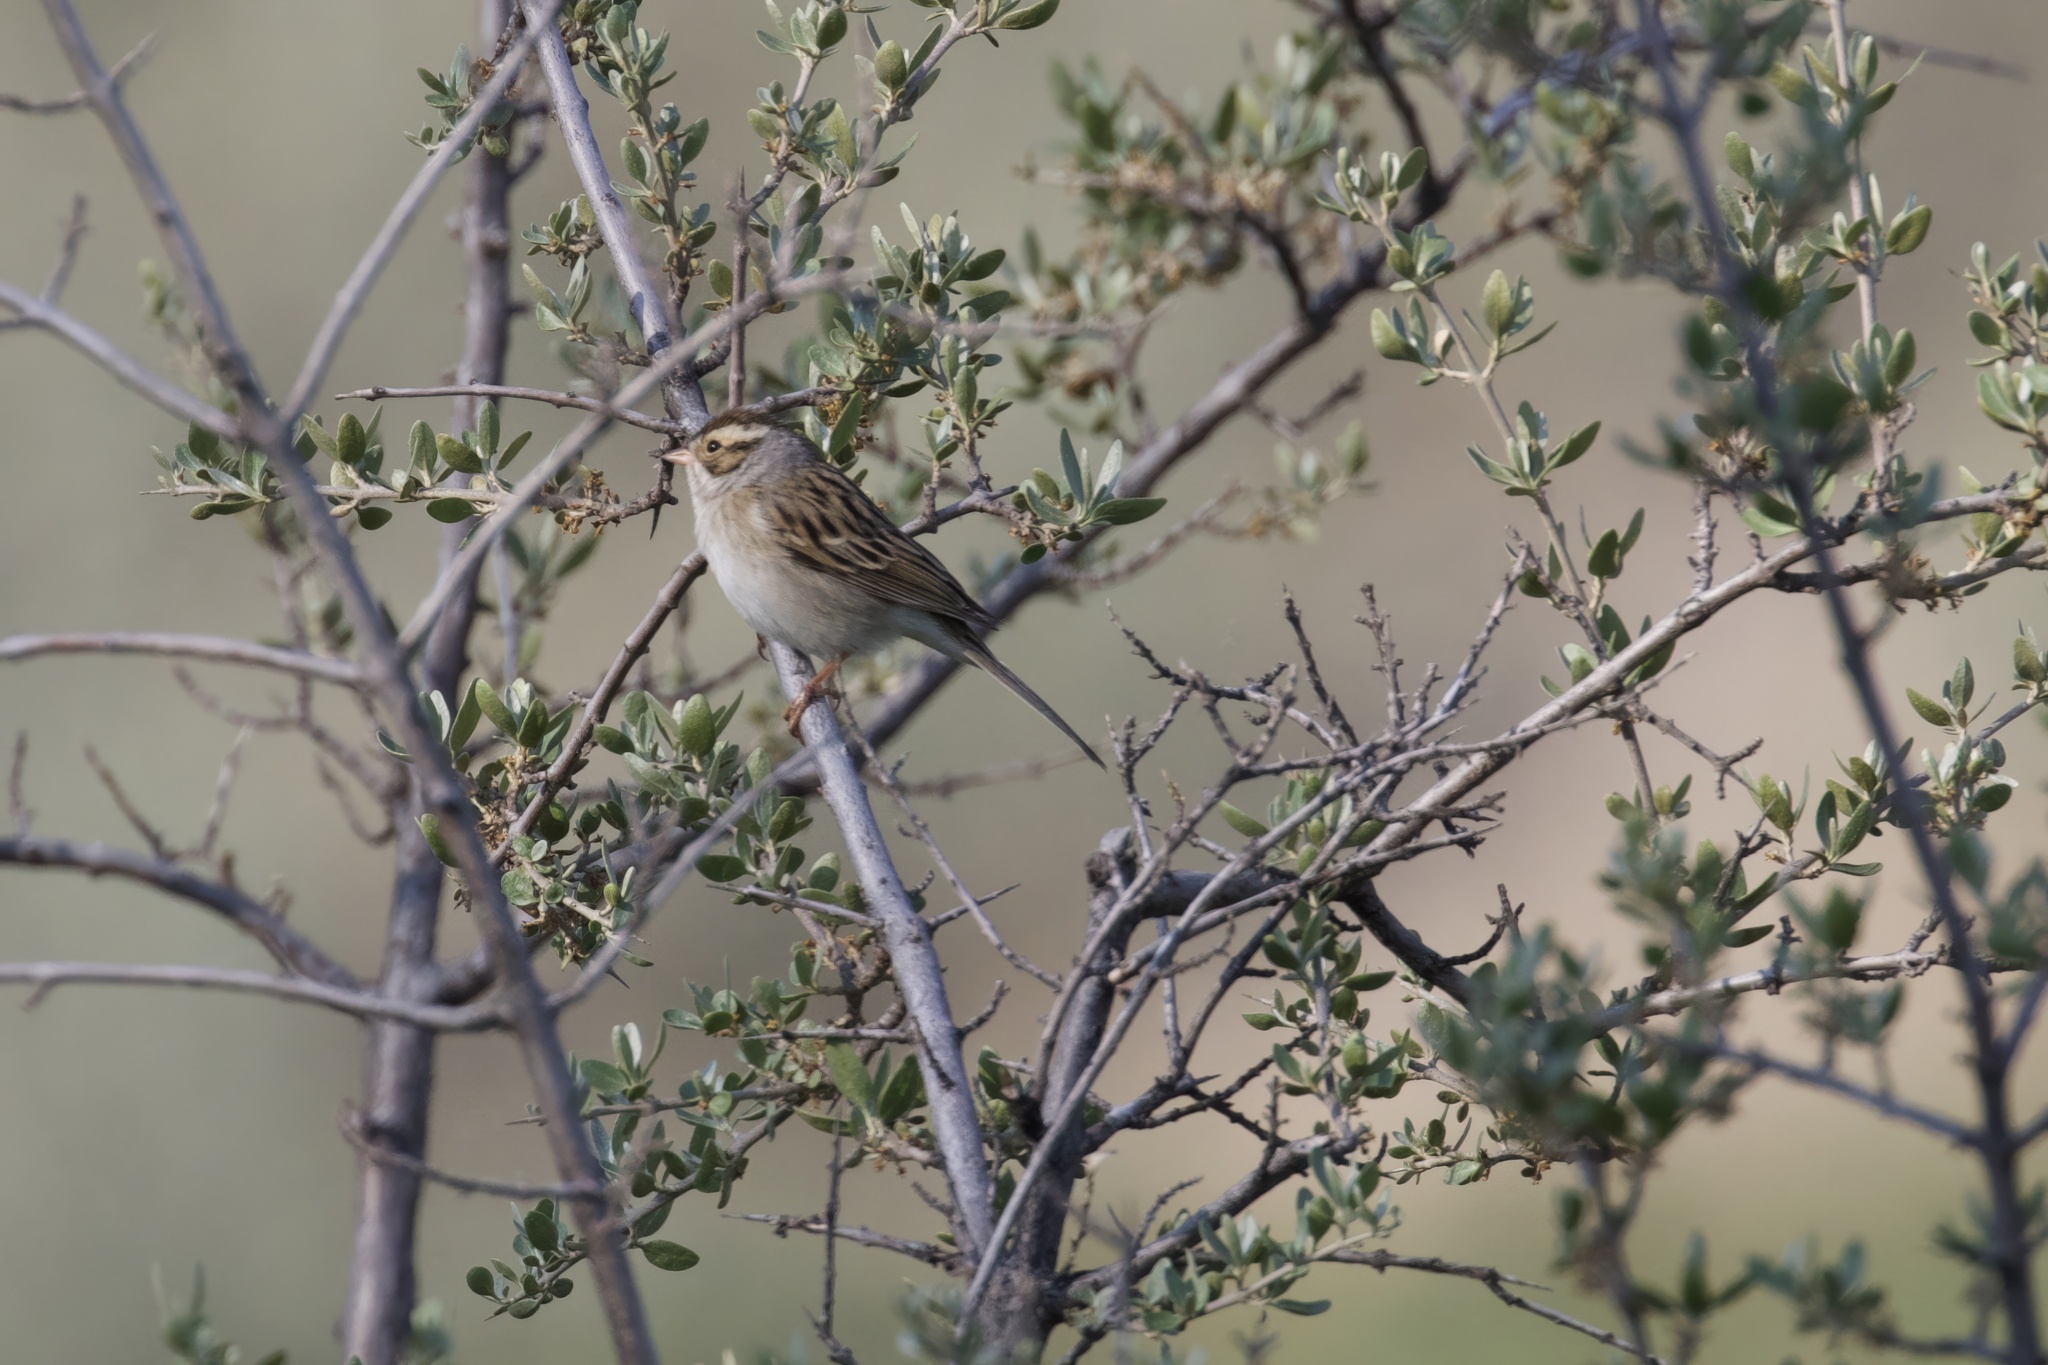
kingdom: Animalia
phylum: Chordata
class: Aves
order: Passeriformes
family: Passerellidae
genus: Spizella
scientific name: Spizella pallida
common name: Clay-colored sparrow
